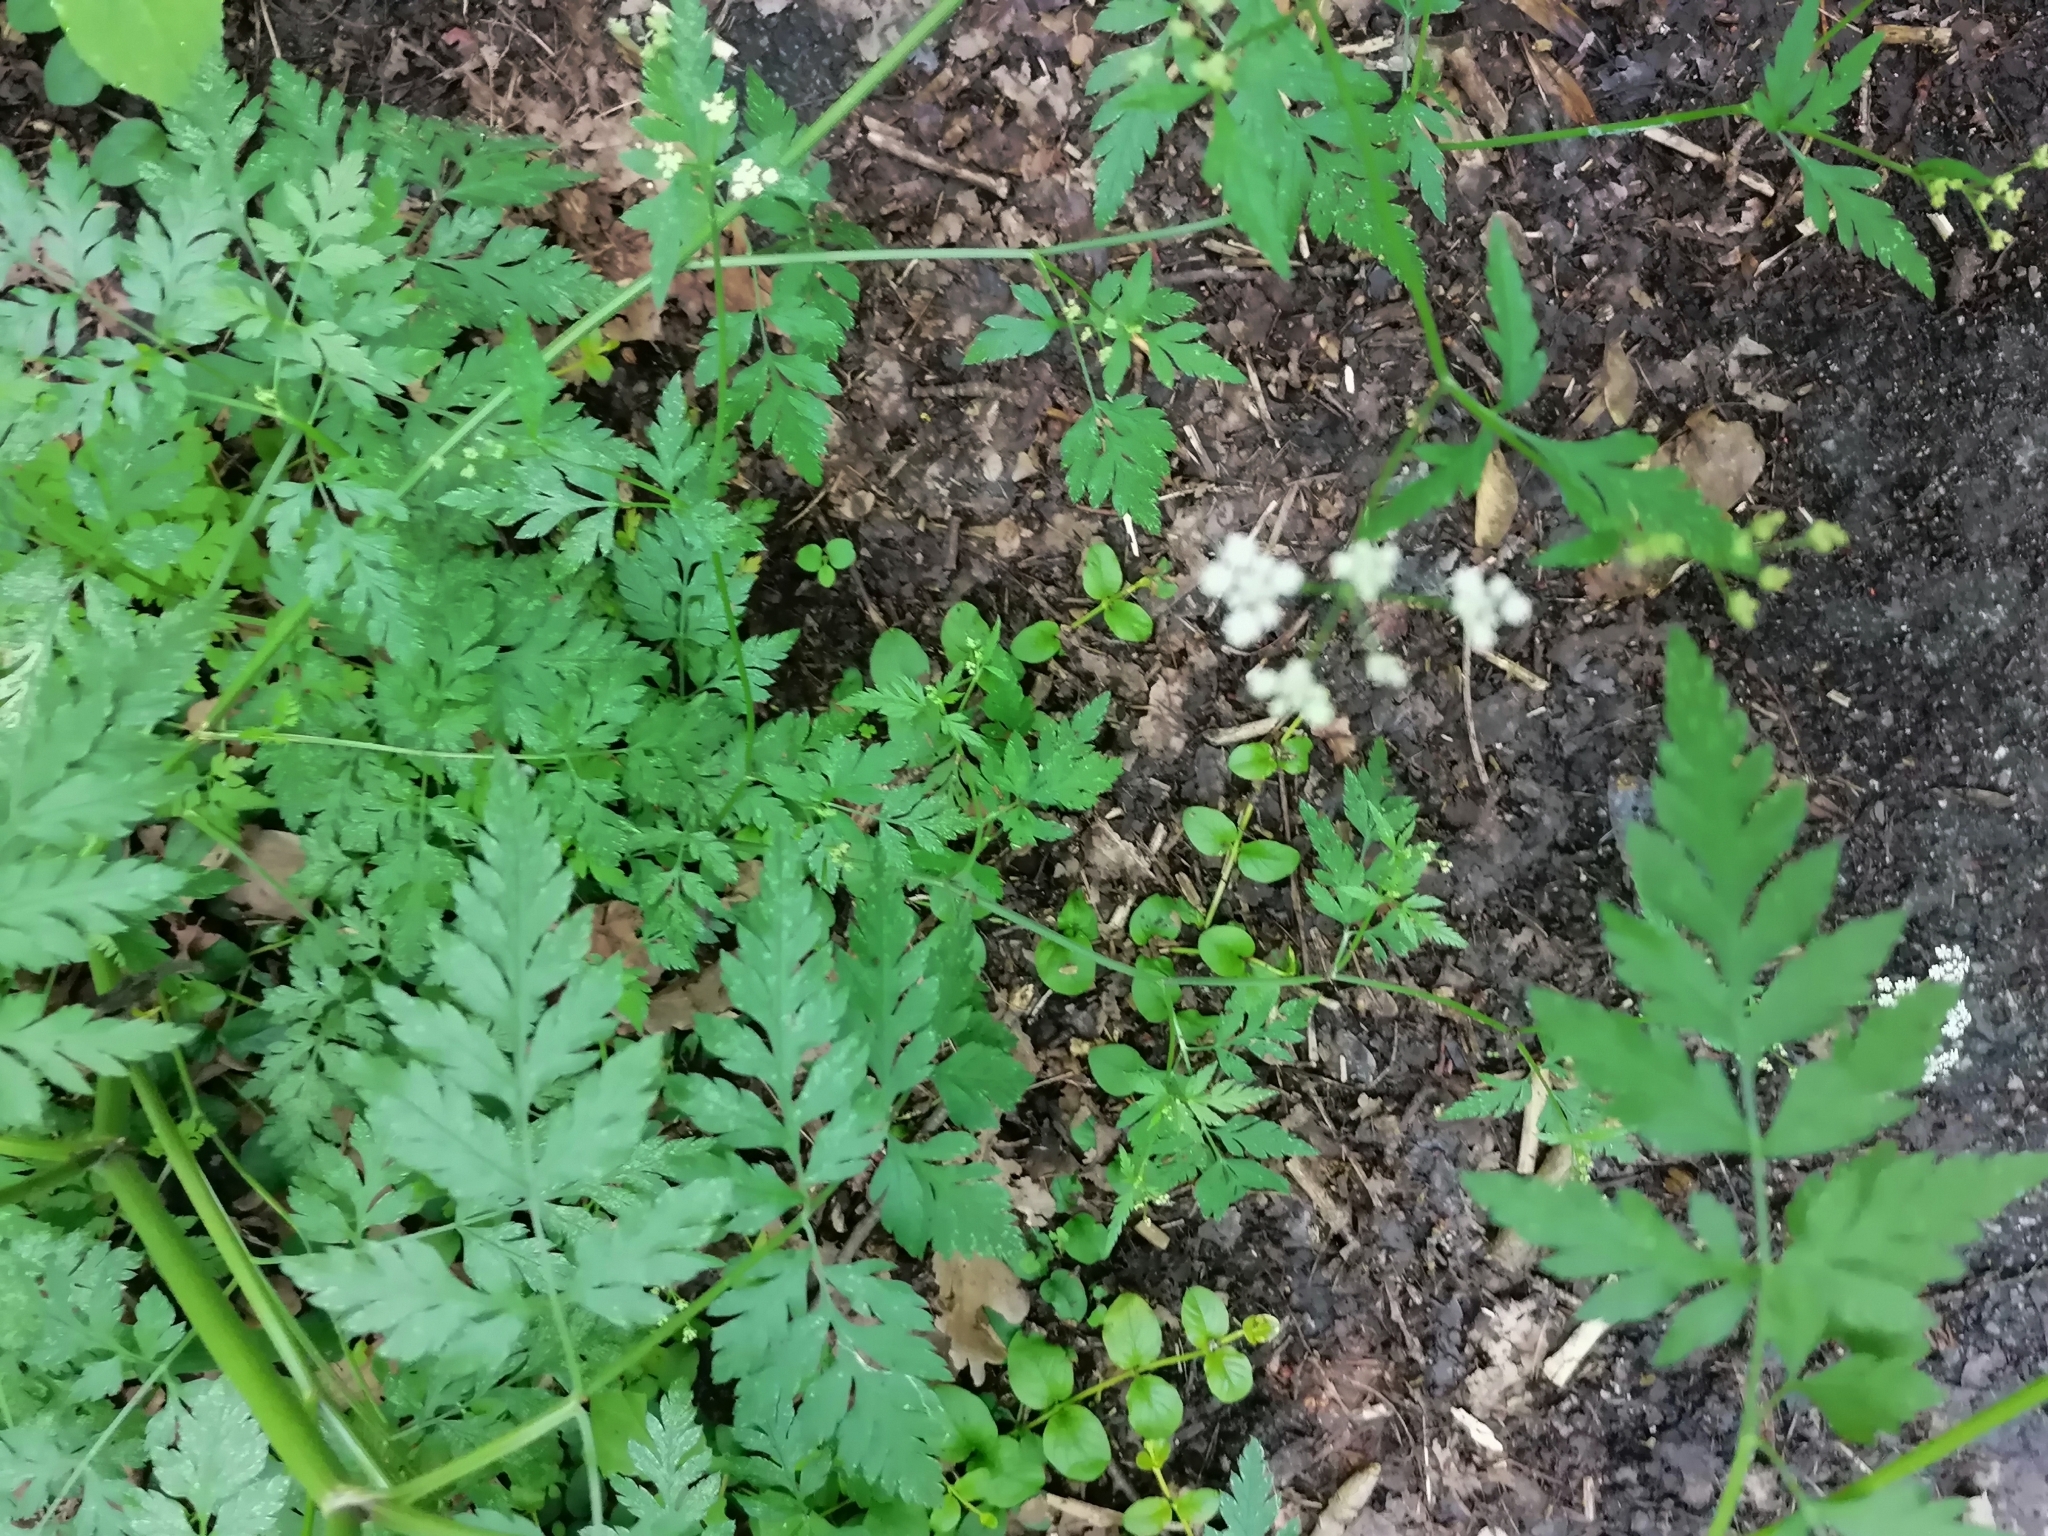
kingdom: Plantae
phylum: Tracheophyta
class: Magnoliopsida
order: Apiales
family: Apiaceae
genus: Torilis
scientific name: Torilis japonica
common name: Upright hedge-parsley
